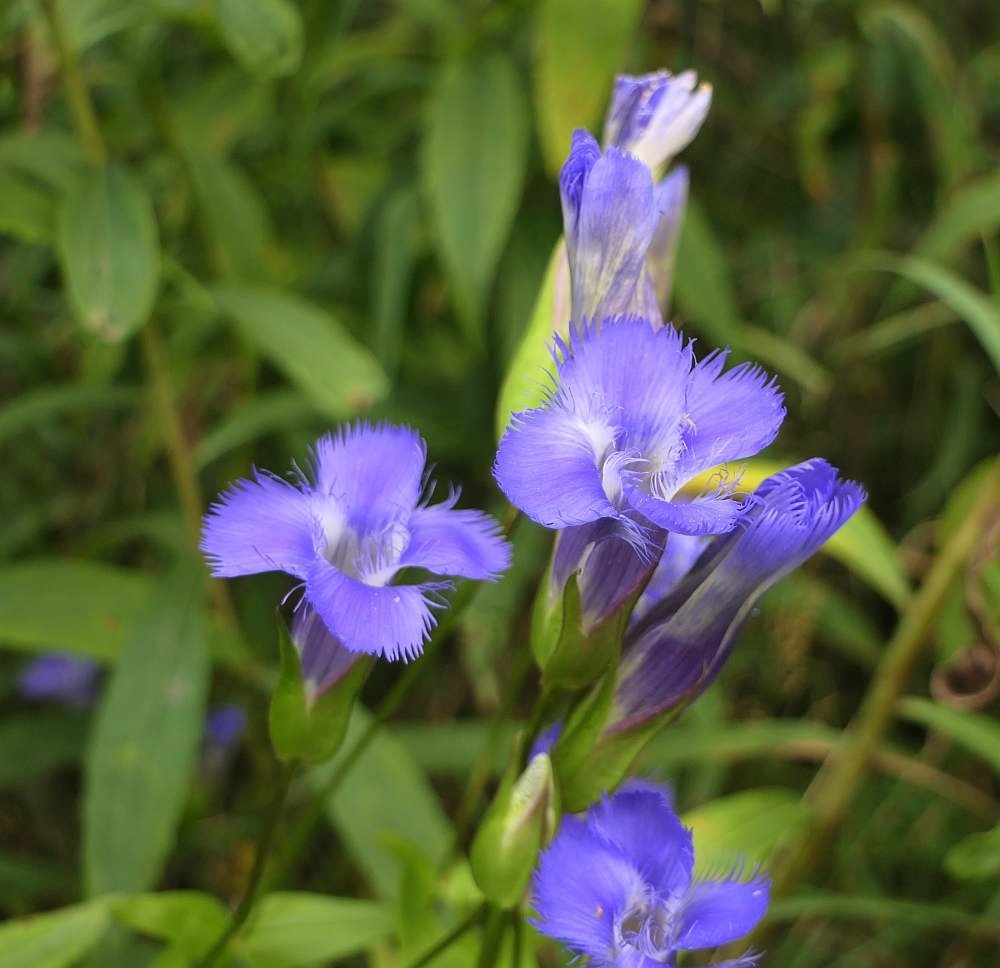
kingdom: Plantae
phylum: Tracheophyta
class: Magnoliopsida
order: Gentianales
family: Gentianaceae
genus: Gentianopsis
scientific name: Gentianopsis crinita
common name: Fringed-gentian
